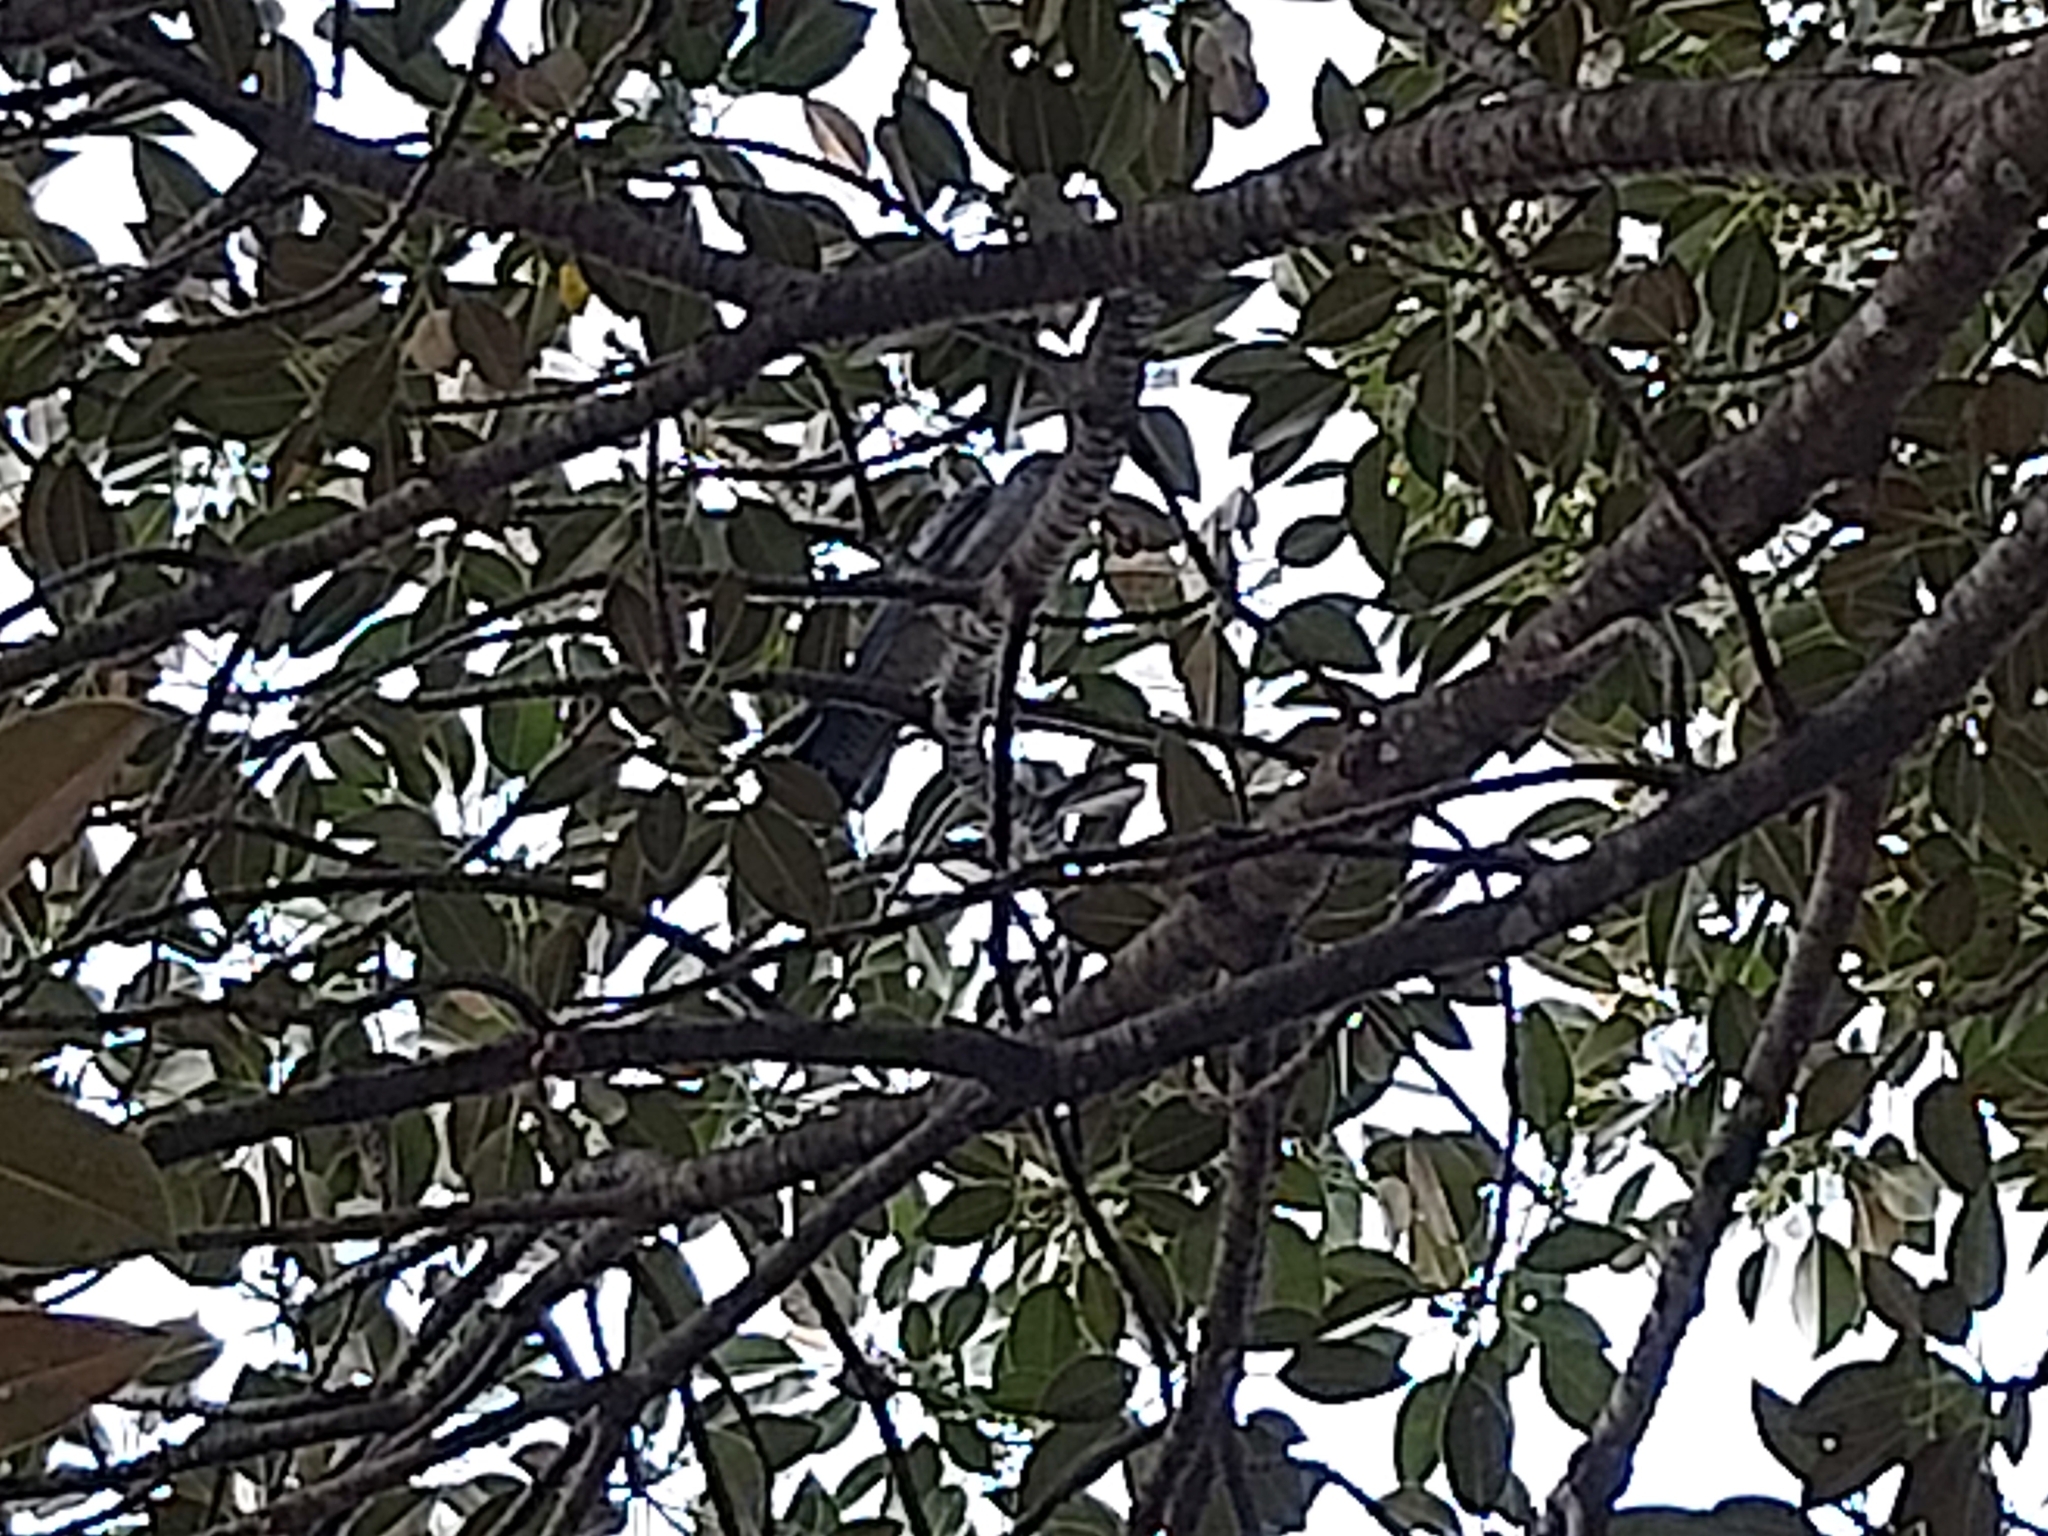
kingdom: Animalia
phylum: Chordata
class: Aves
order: Cuculiformes
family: Cuculidae
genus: Scythrops
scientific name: Scythrops novaehollandiae
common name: Channel-billed cuckoo
